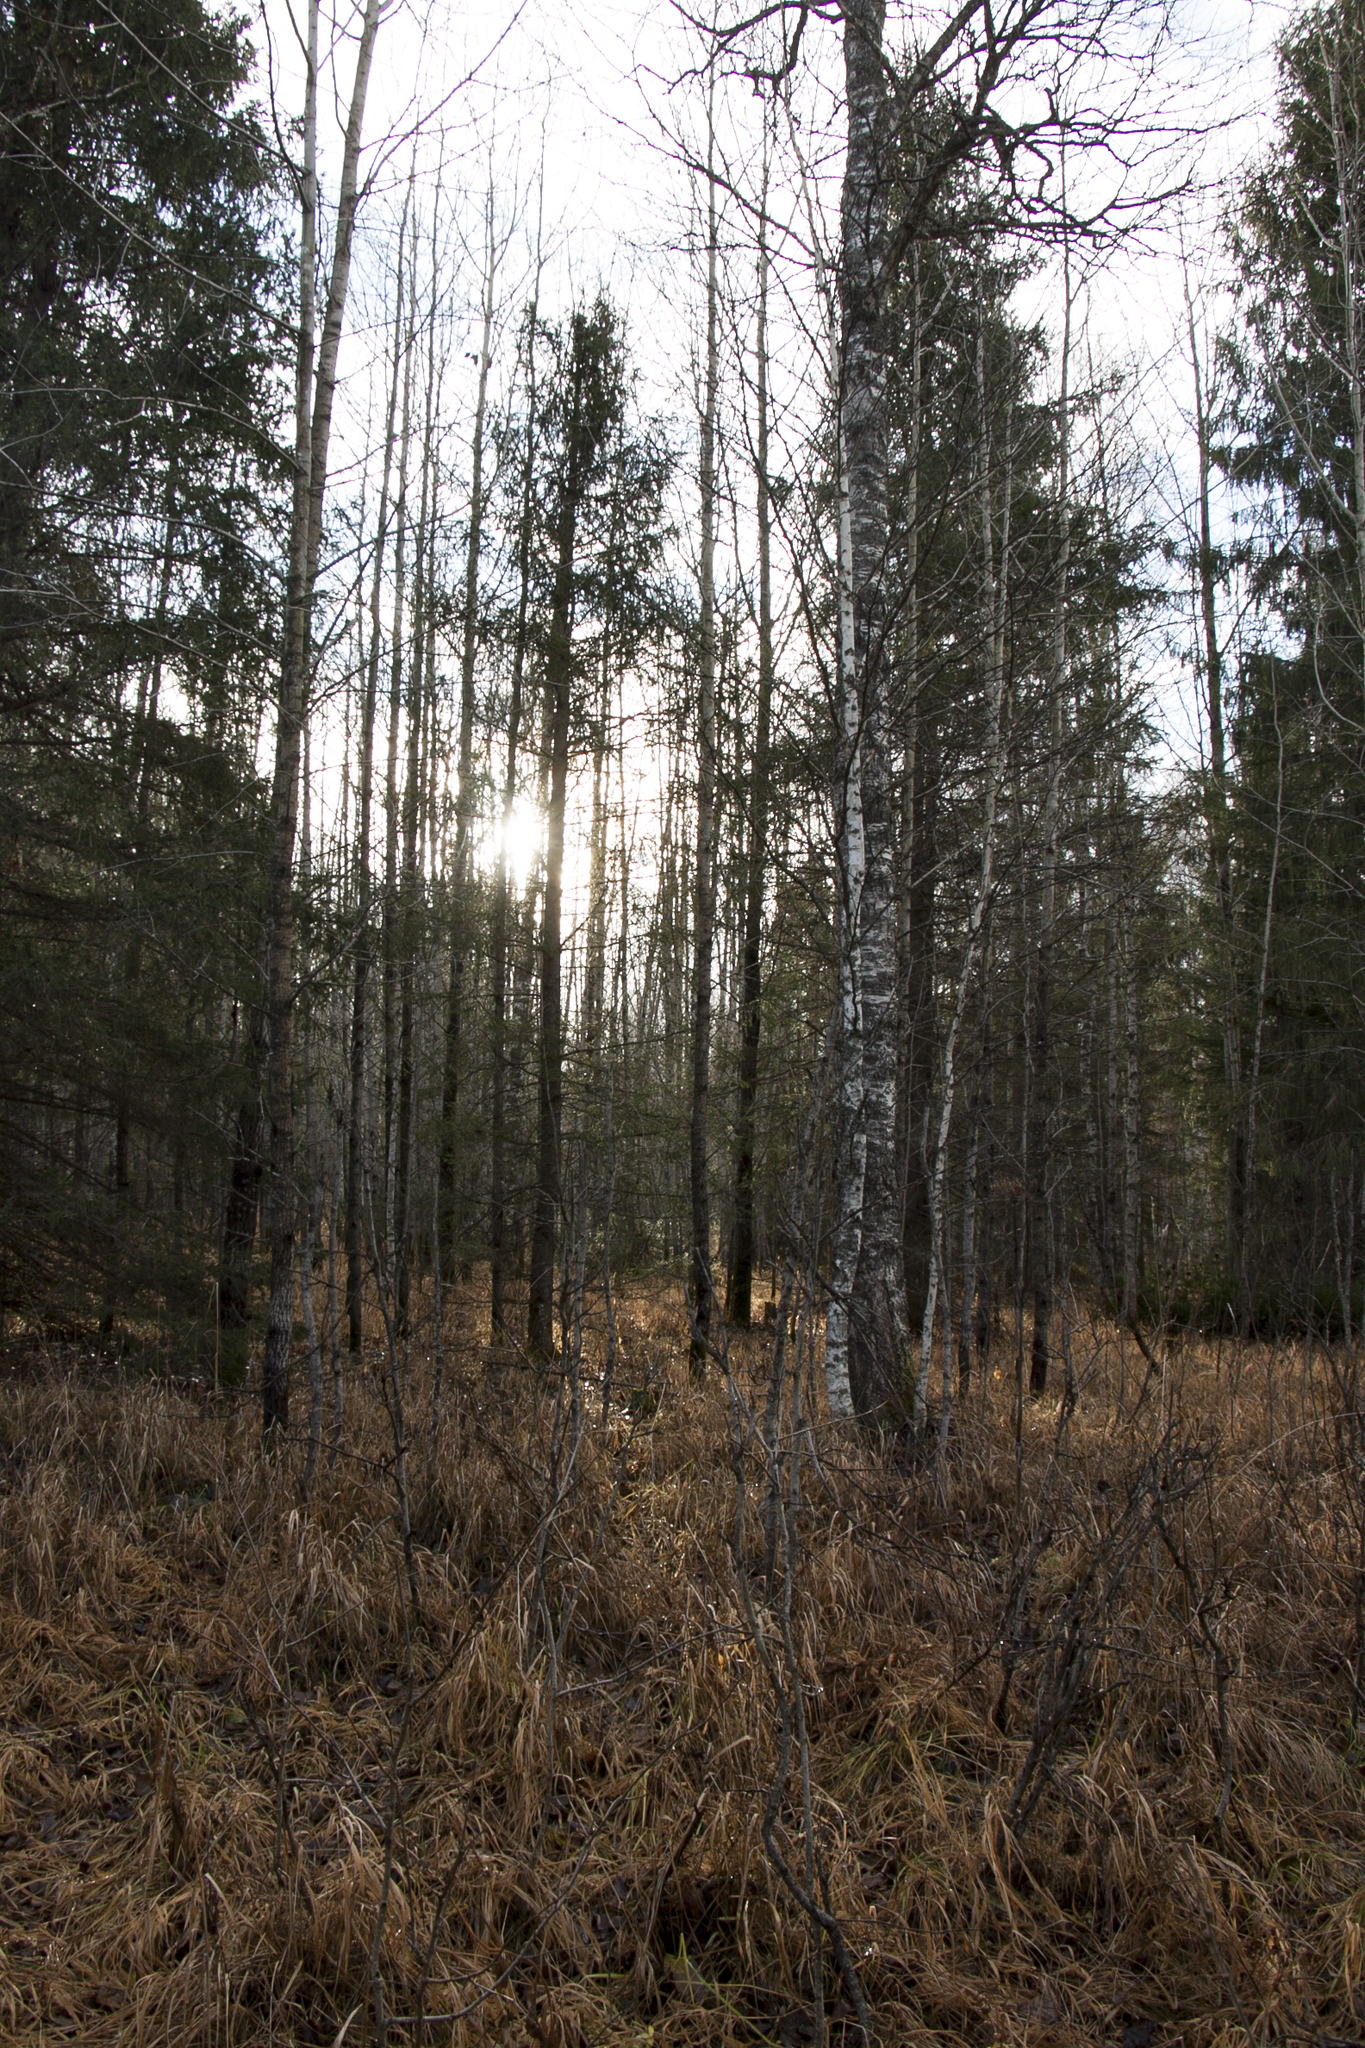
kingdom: Plantae
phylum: Tracheophyta
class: Pinopsida
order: Pinales
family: Pinaceae
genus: Picea
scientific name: Picea obovata
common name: Siberian spruce
